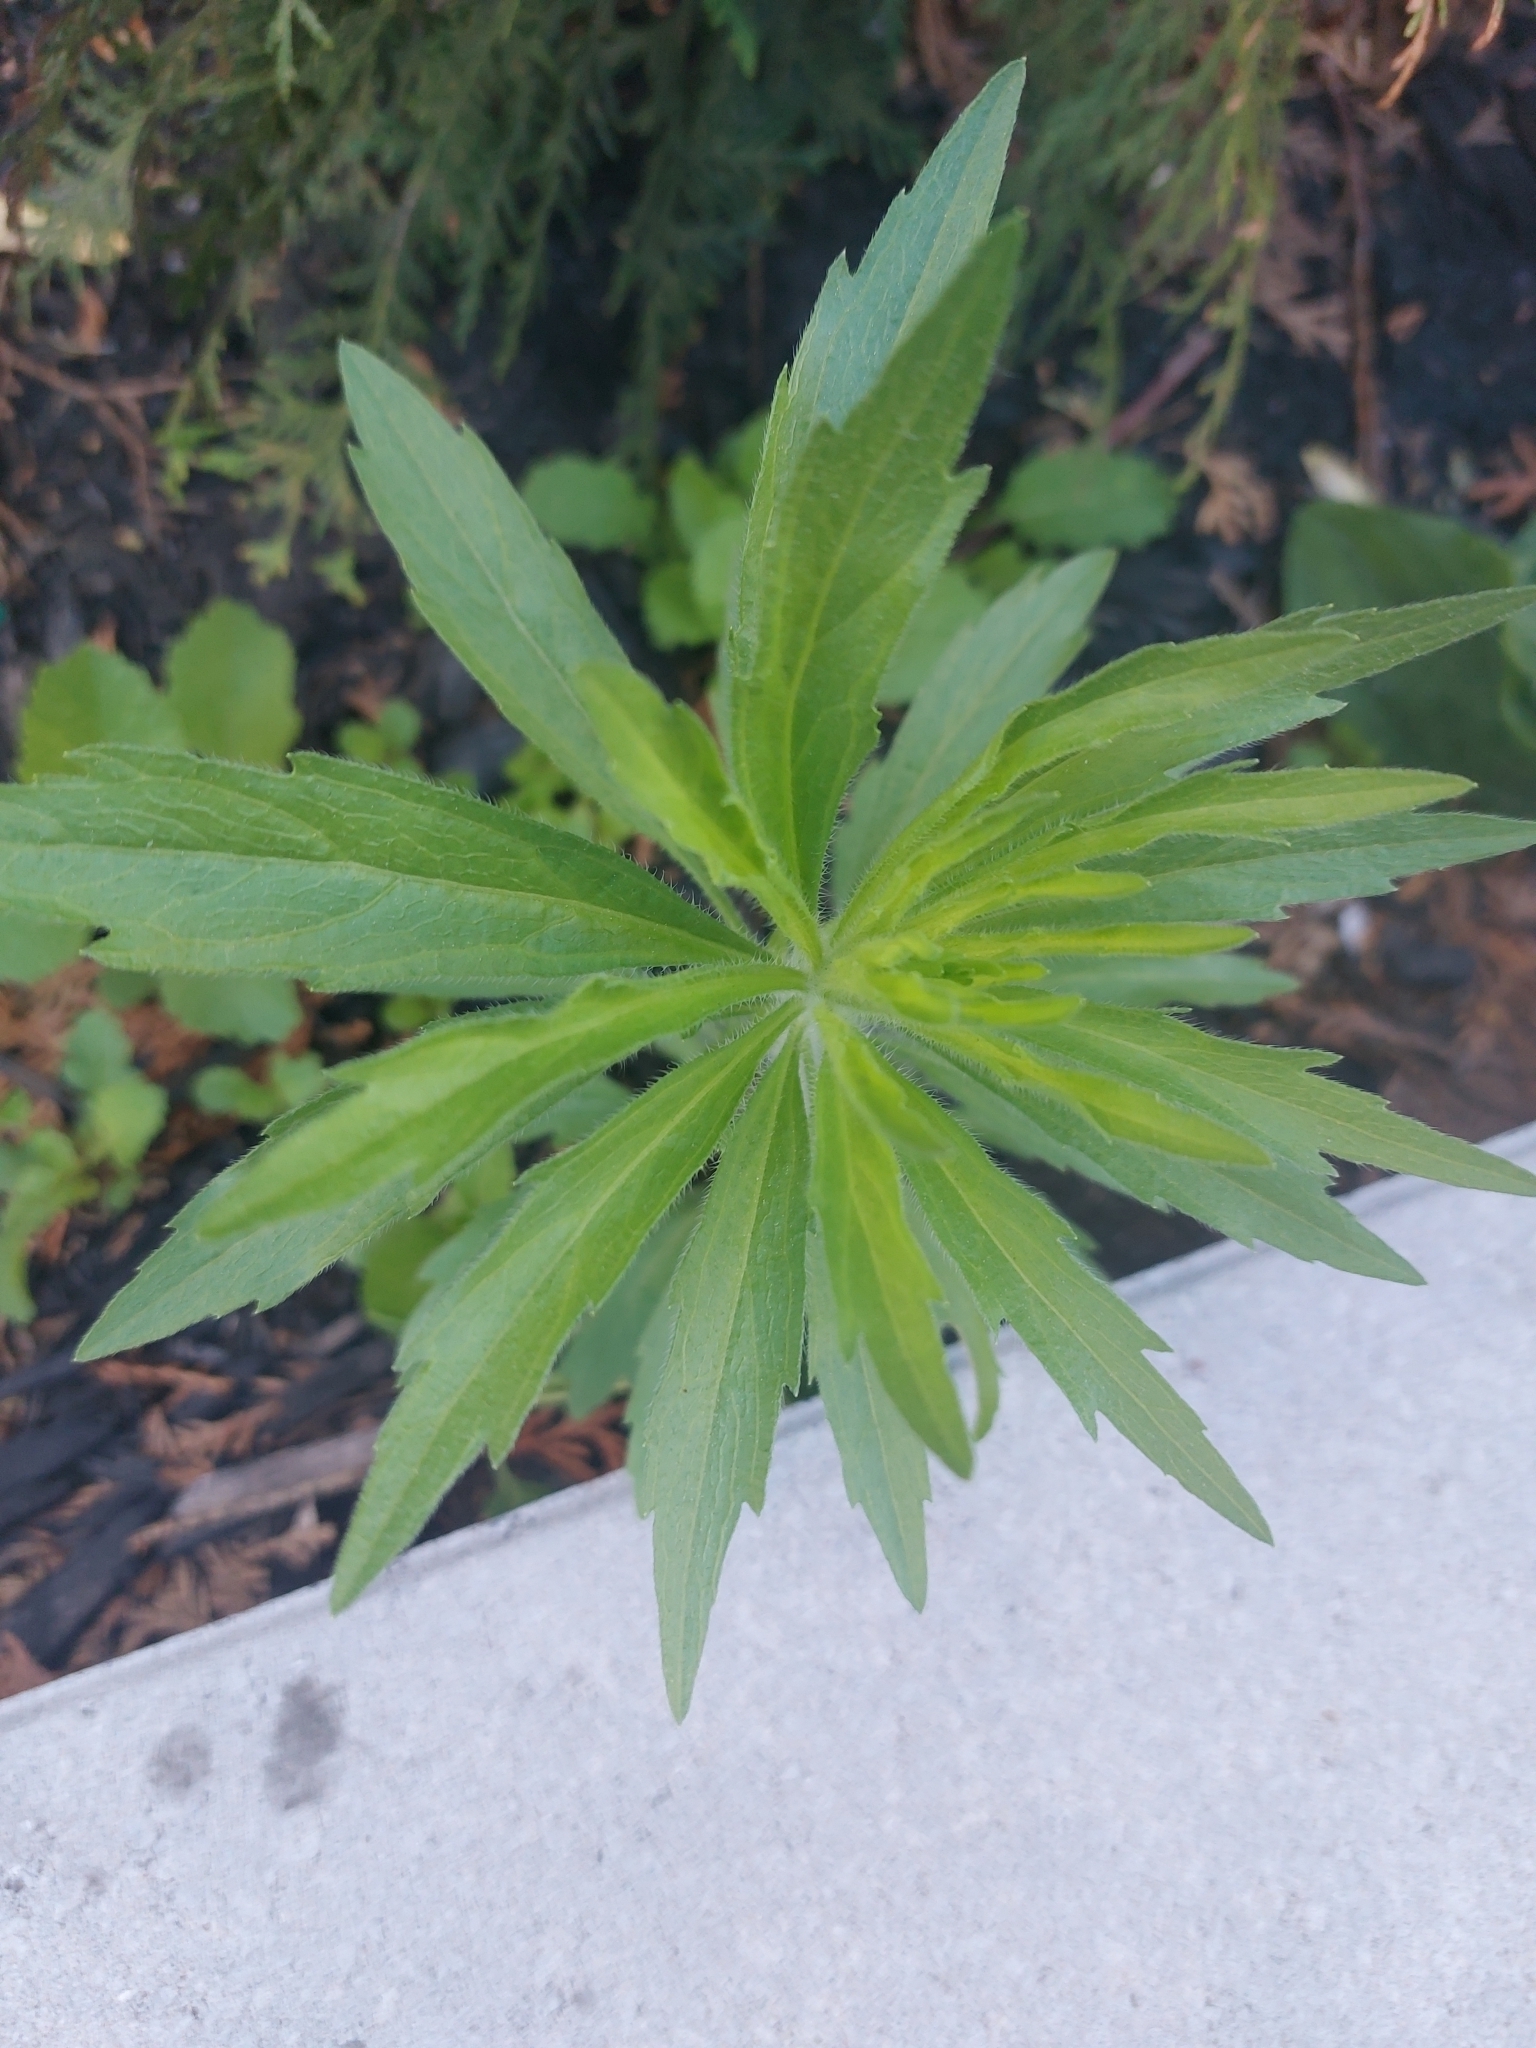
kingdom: Plantae
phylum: Tracheophyta
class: Magnoliopsida
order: Asterales
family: Asteraceae
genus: Erigeron
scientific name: Erigeron canadensis
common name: Canadian fleabane
